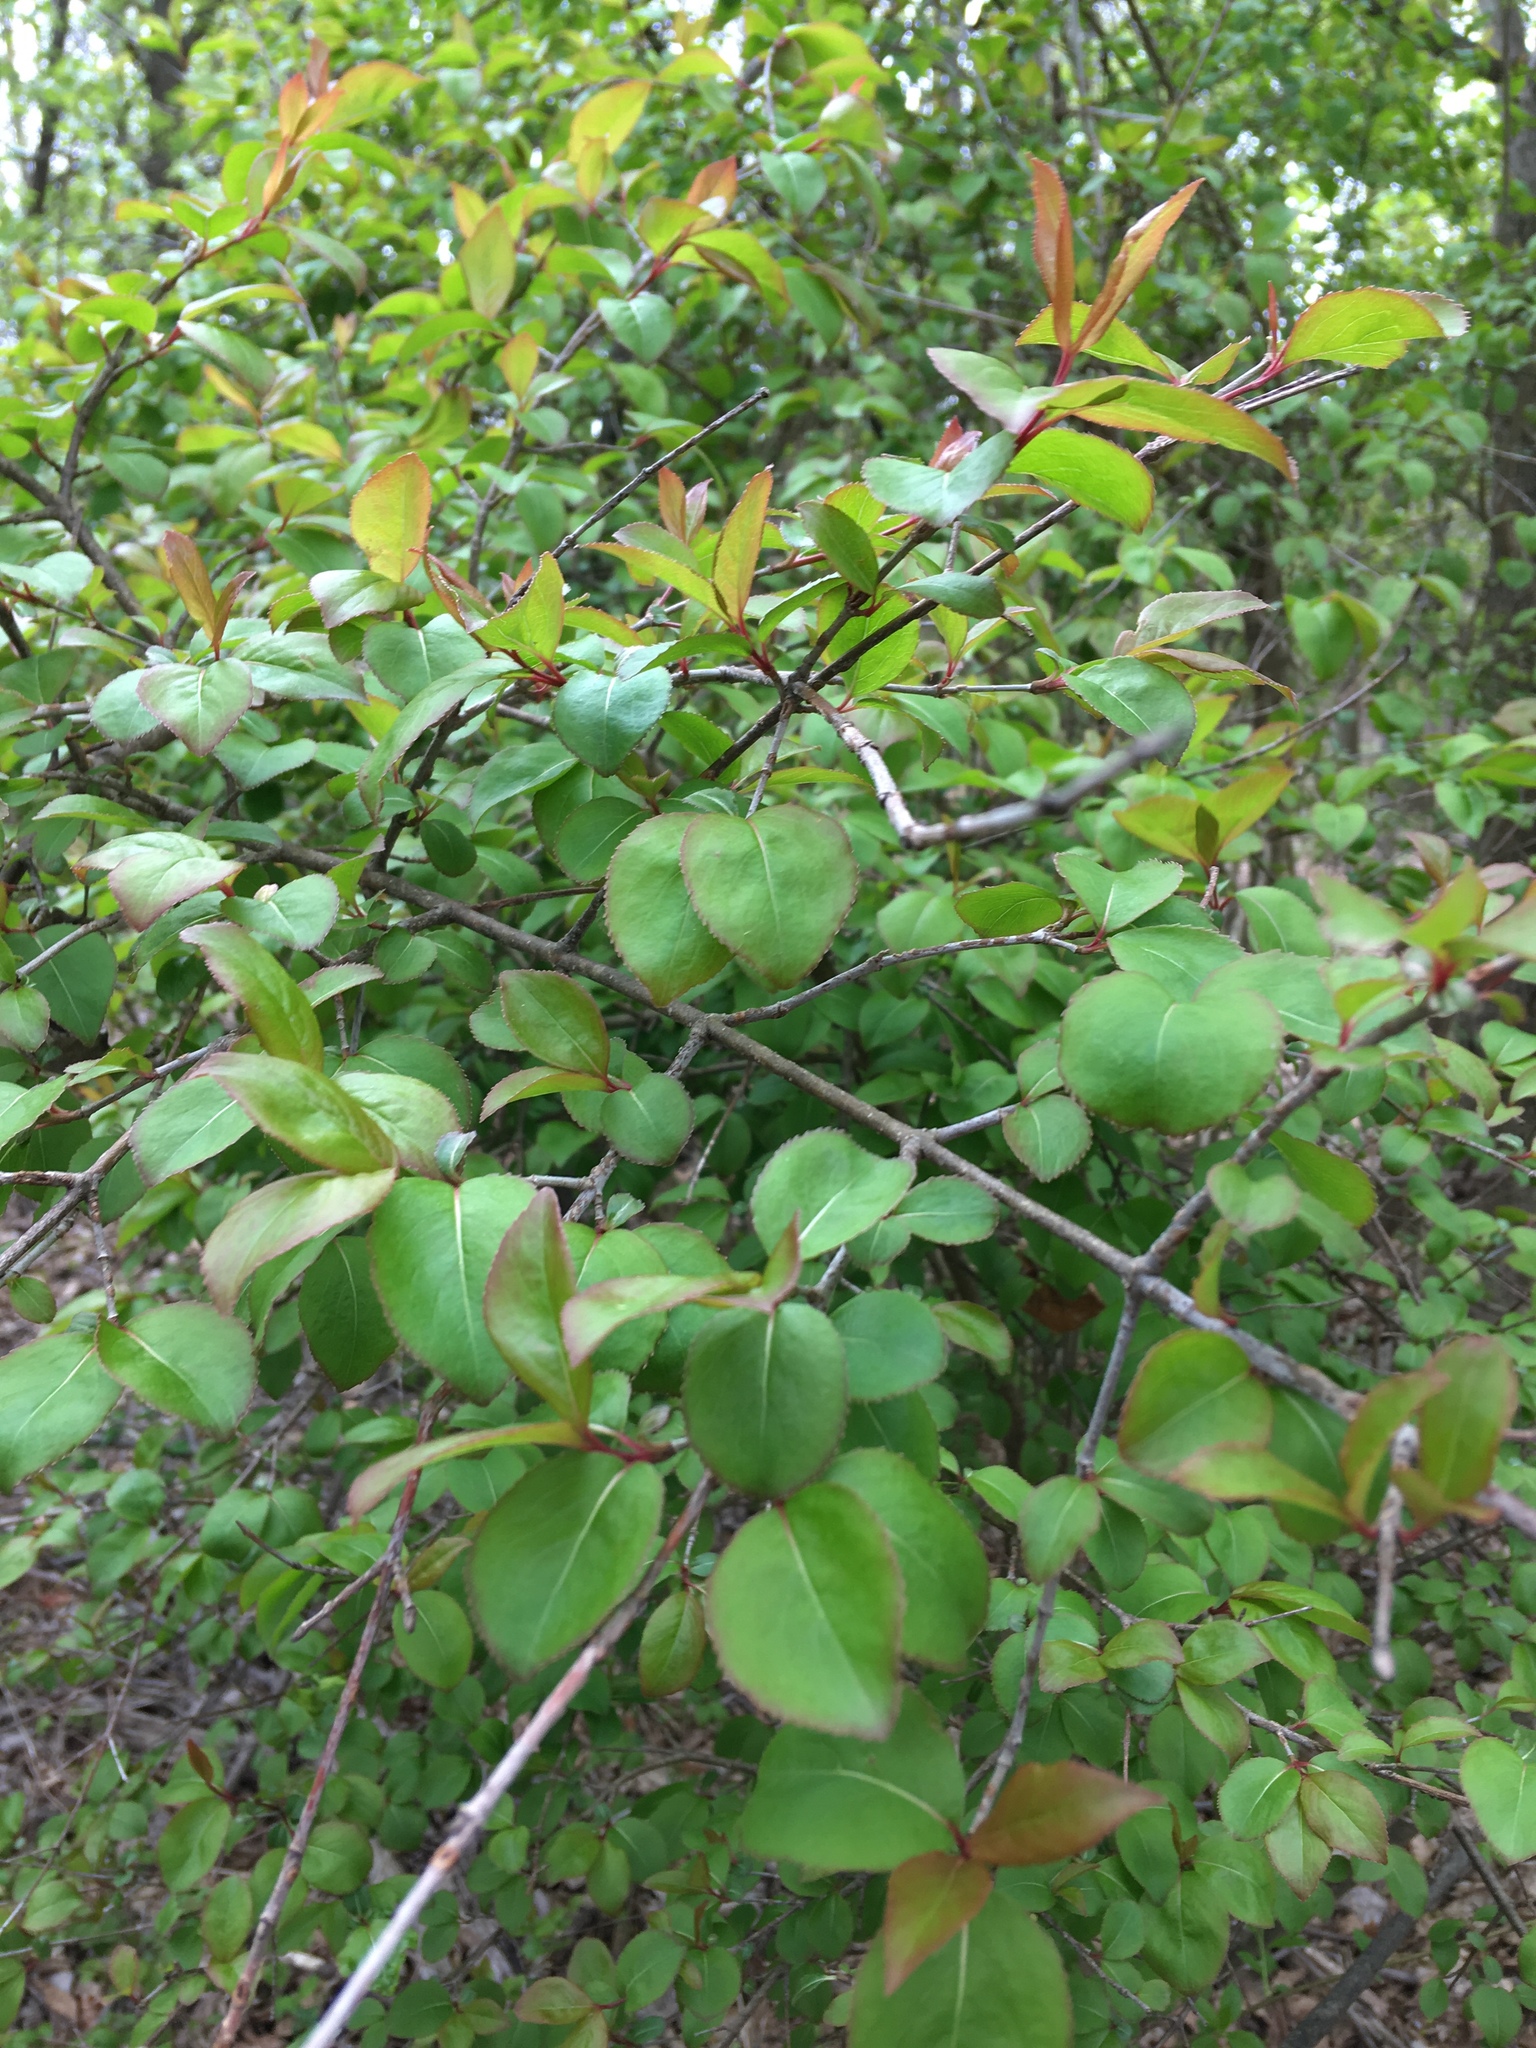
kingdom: Plantae
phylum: Tracheophyta
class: Magnoliopsida
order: Dipsacales
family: Viburnaceae
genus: Viburnum
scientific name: Viburnum prunifolium
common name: Black haw
